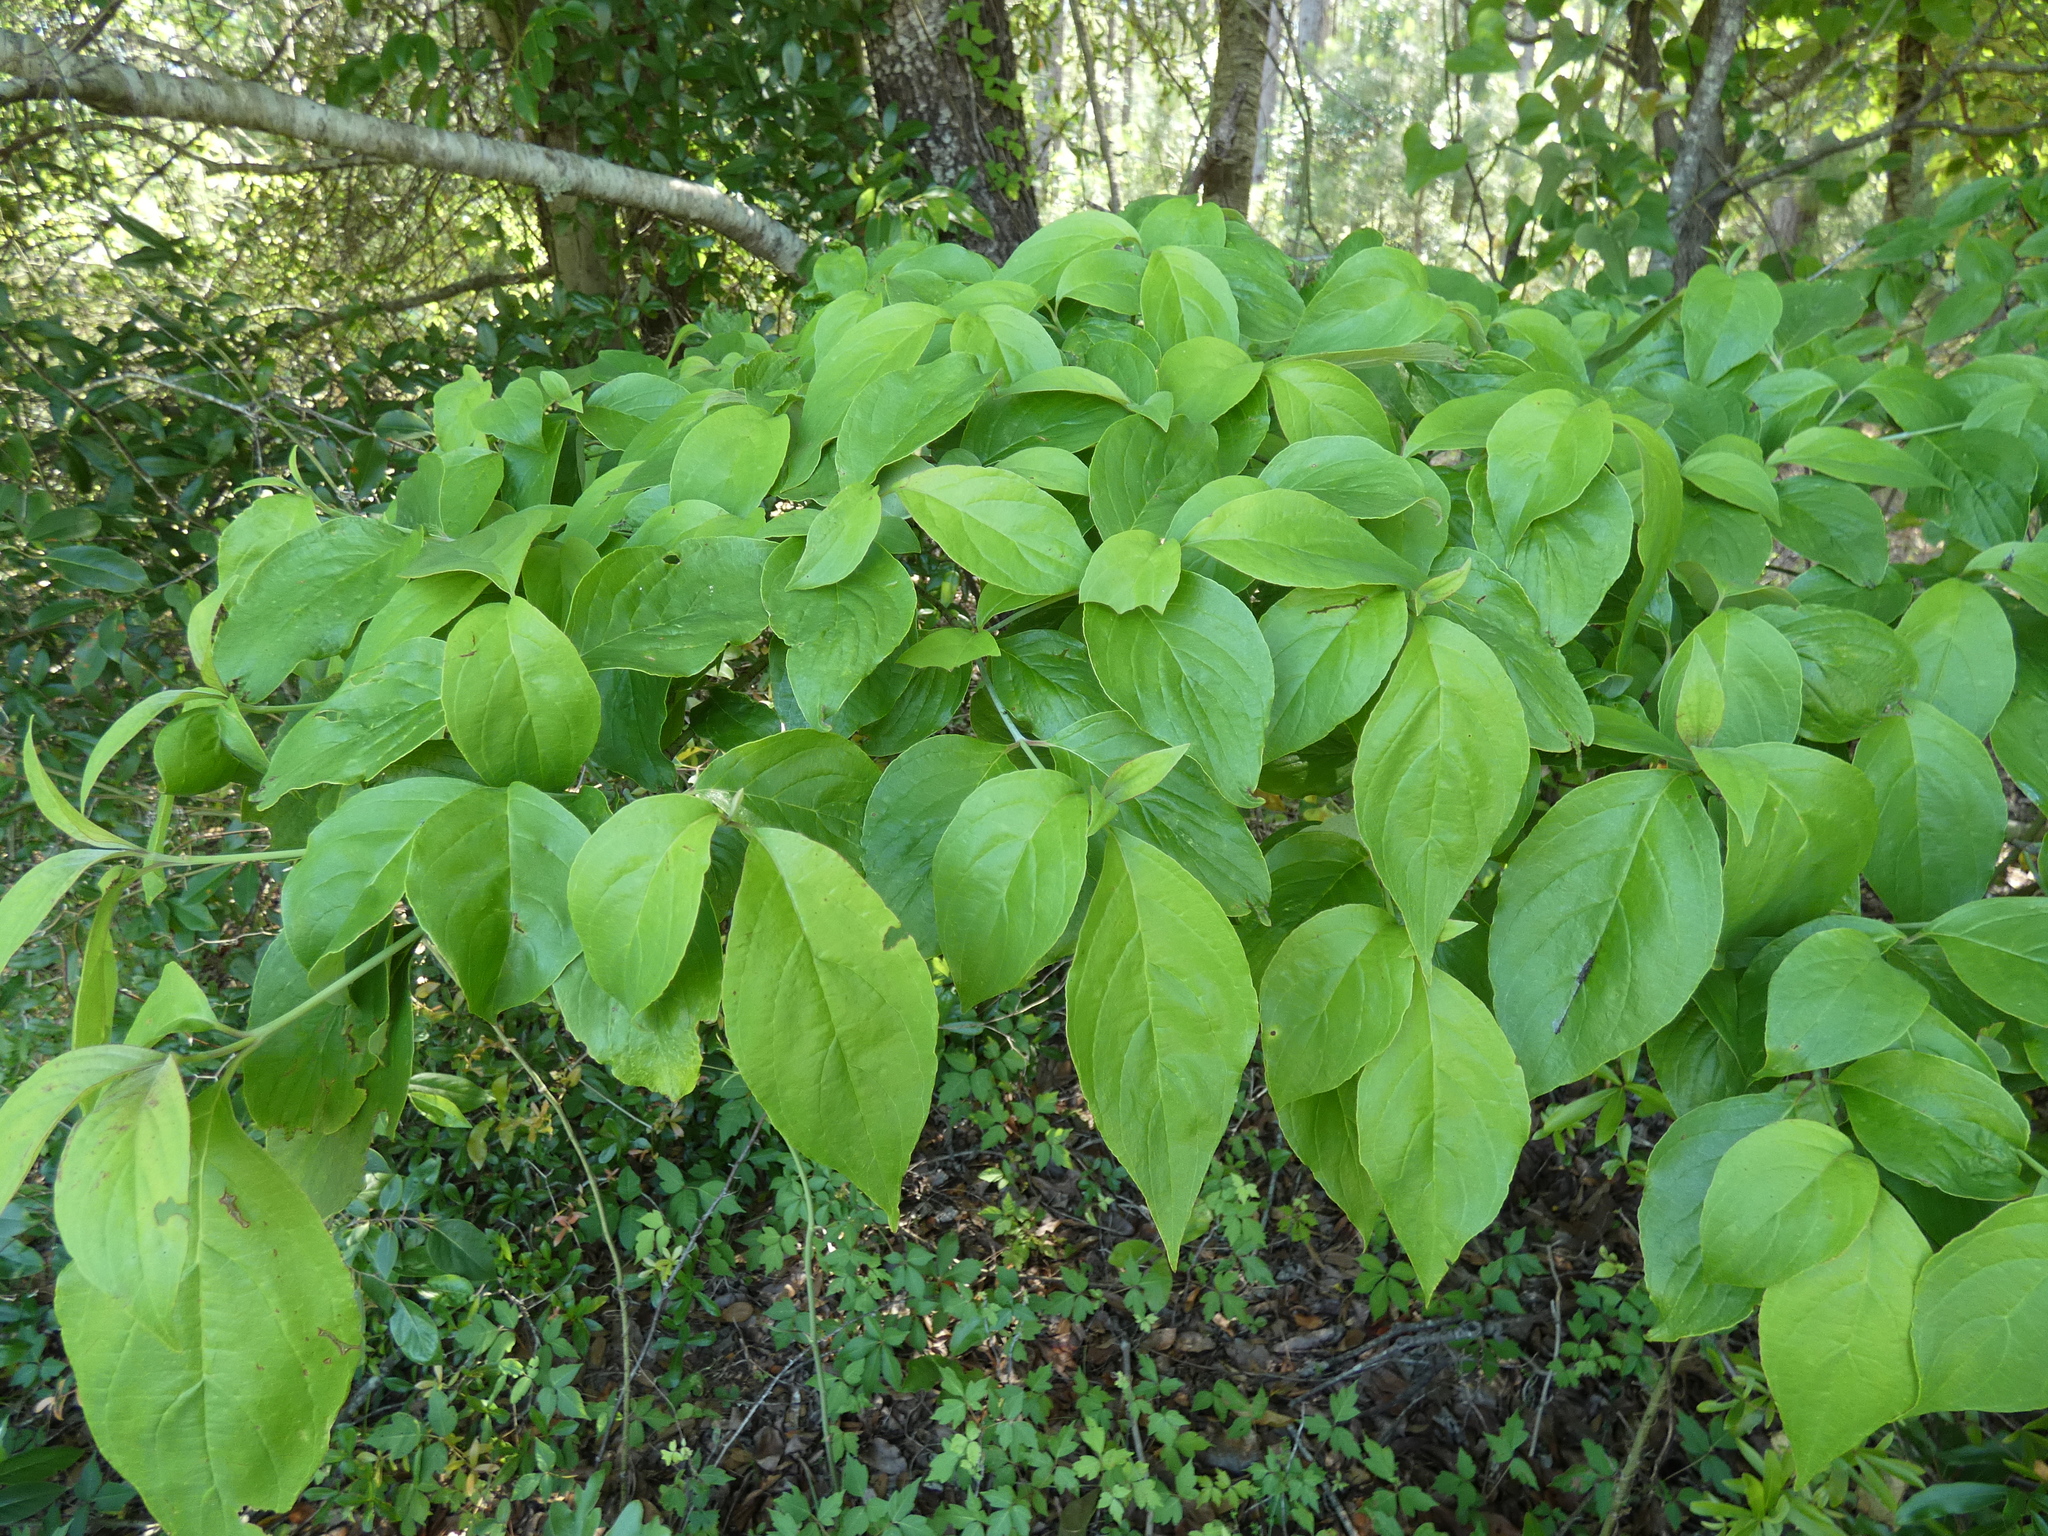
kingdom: Plantae
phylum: Tracheophyta
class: Magnoliopsida
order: Cornales
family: Cornaceae
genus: Cornus
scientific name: Cornus florida
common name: Flowering dogwood
